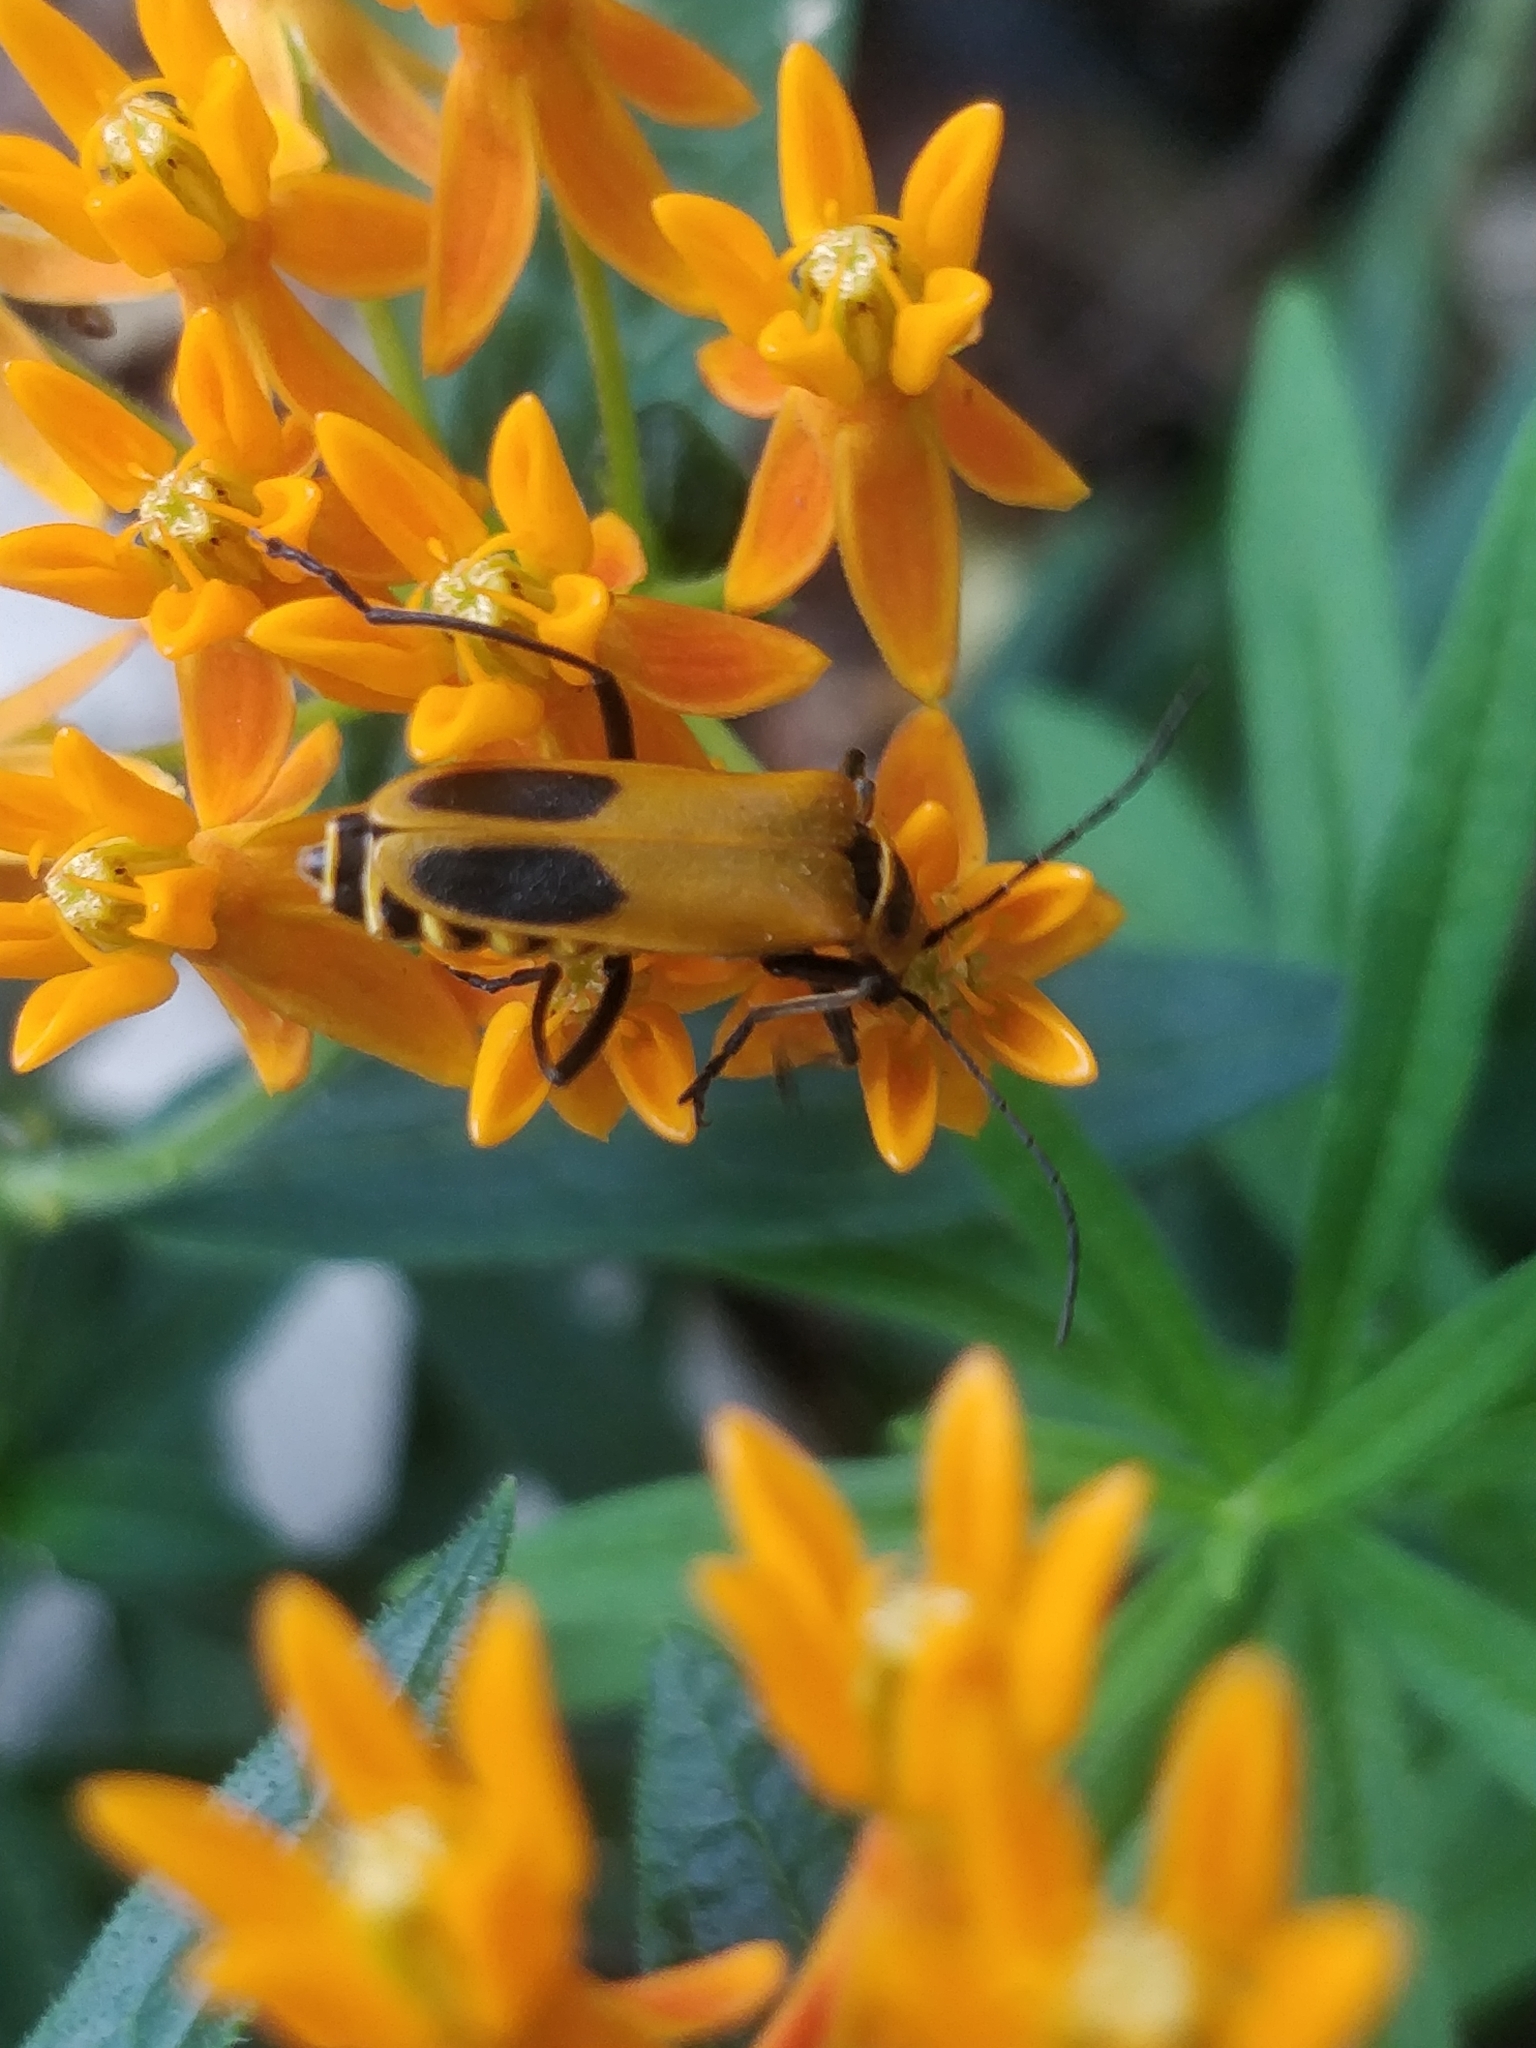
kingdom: Animalia
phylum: Arthropoda
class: Insecta
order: Coleoptera
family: Cantharidae
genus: Chauliognathus
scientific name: Chauliognathus pensylvanicus
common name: Goldenrod soldier beetle
